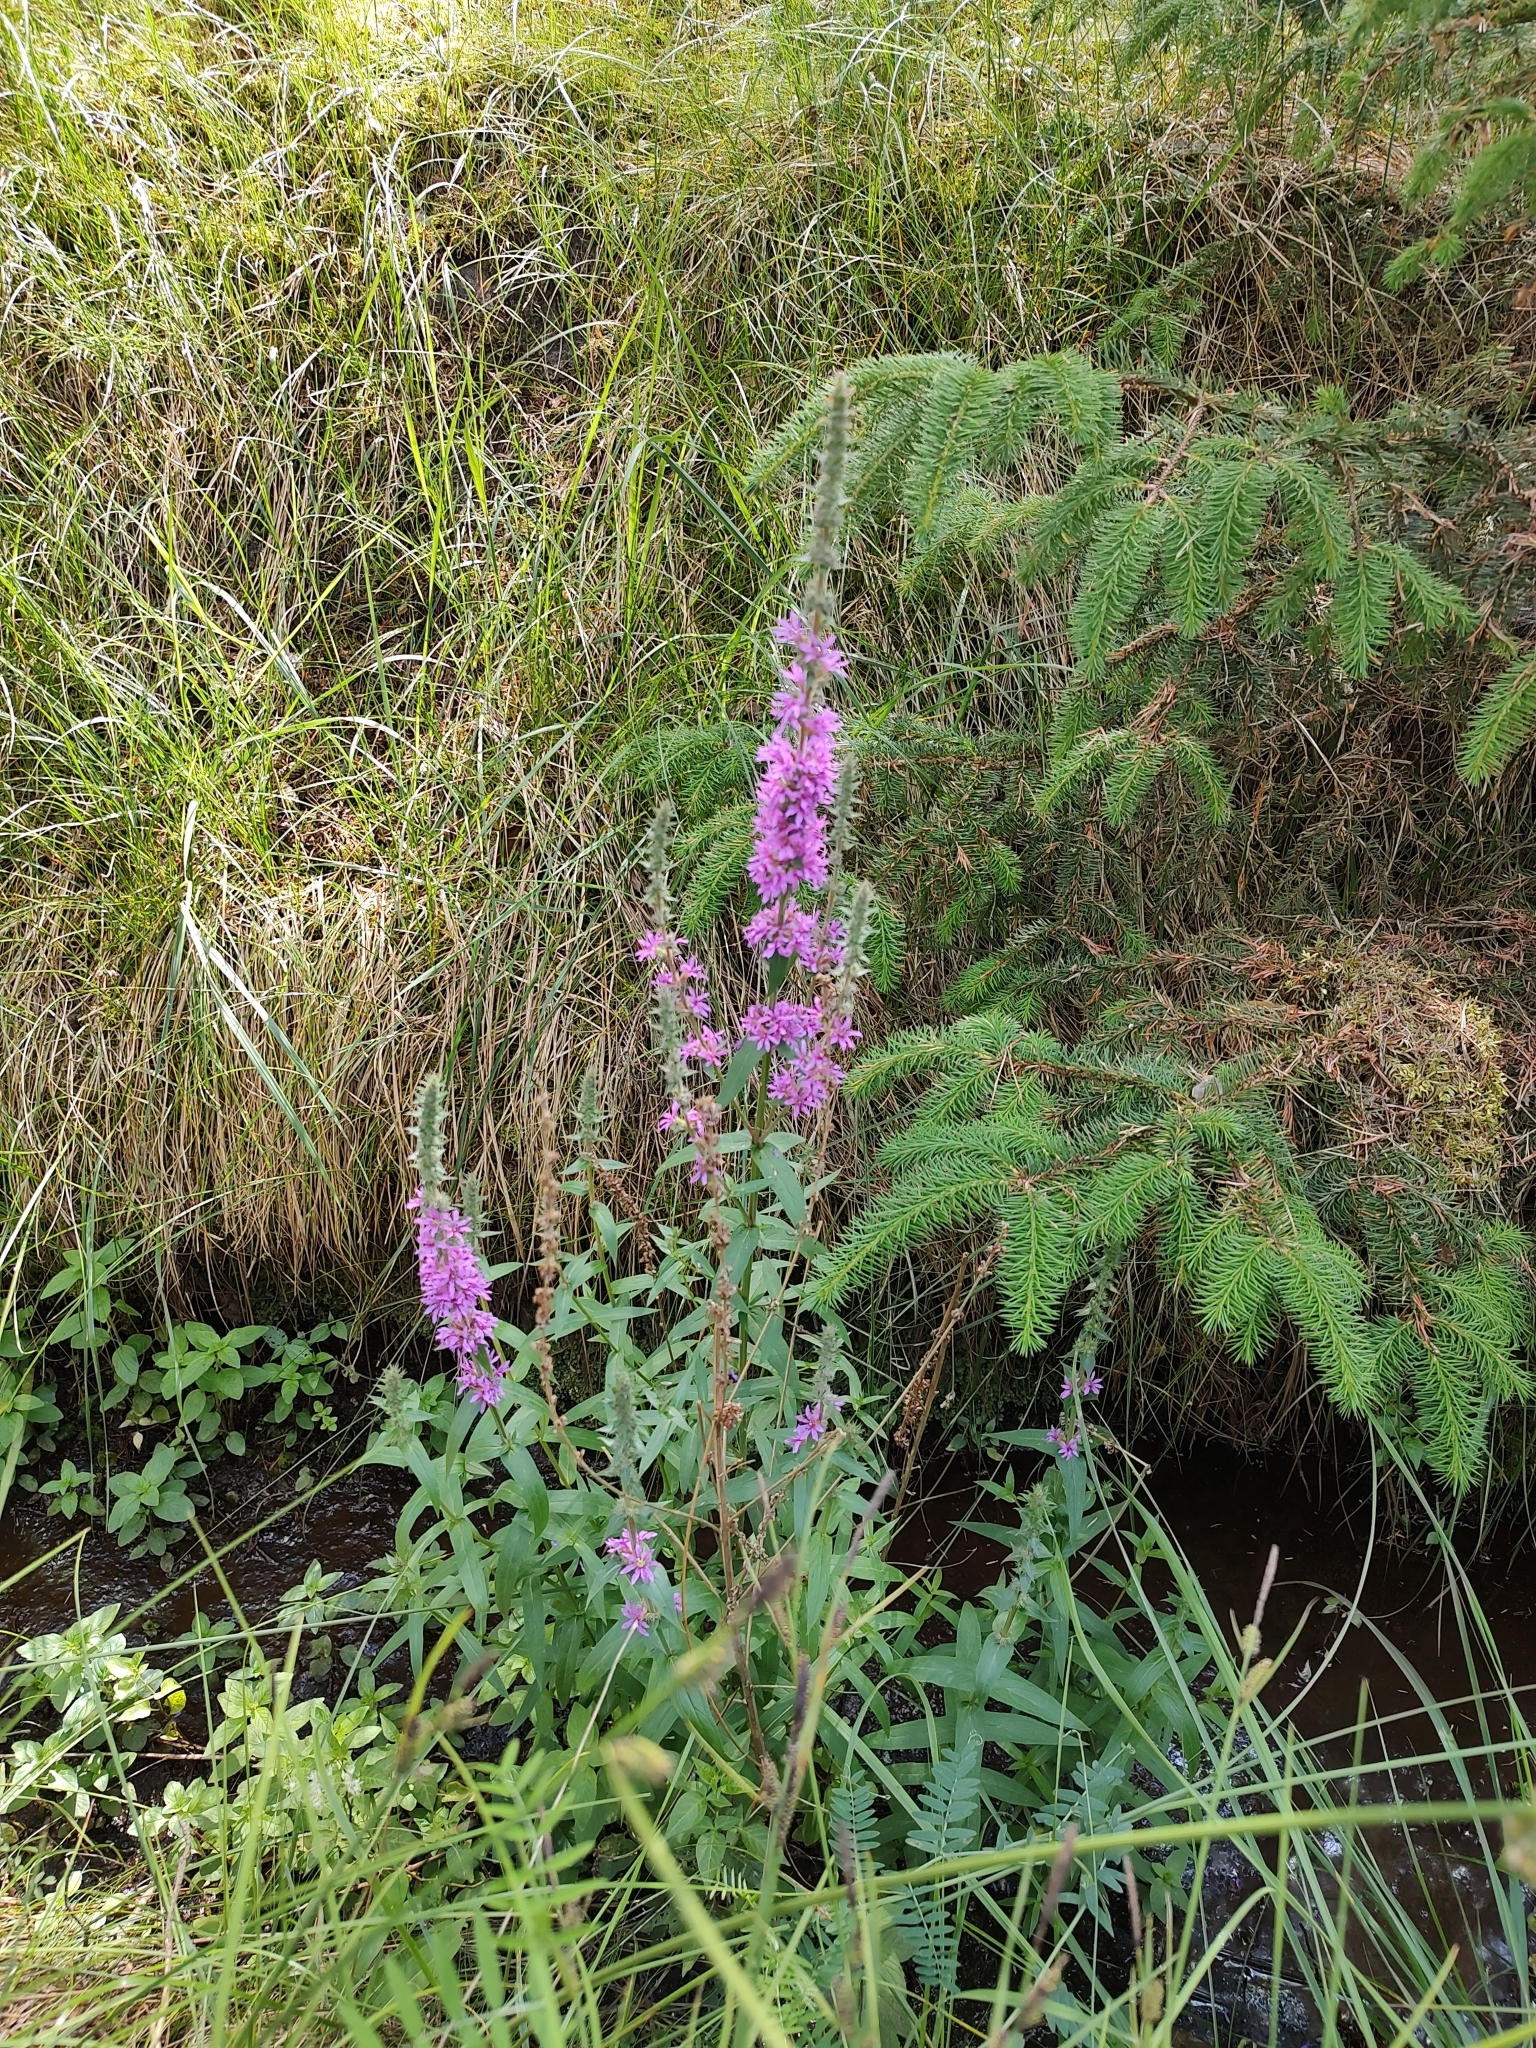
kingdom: Plantae
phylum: Tracheophyta
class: Magnoliopsida
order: Myrtales
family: Lythraceae
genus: Lythrum
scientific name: Lythrum salicaria
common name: Purple loosestrife
